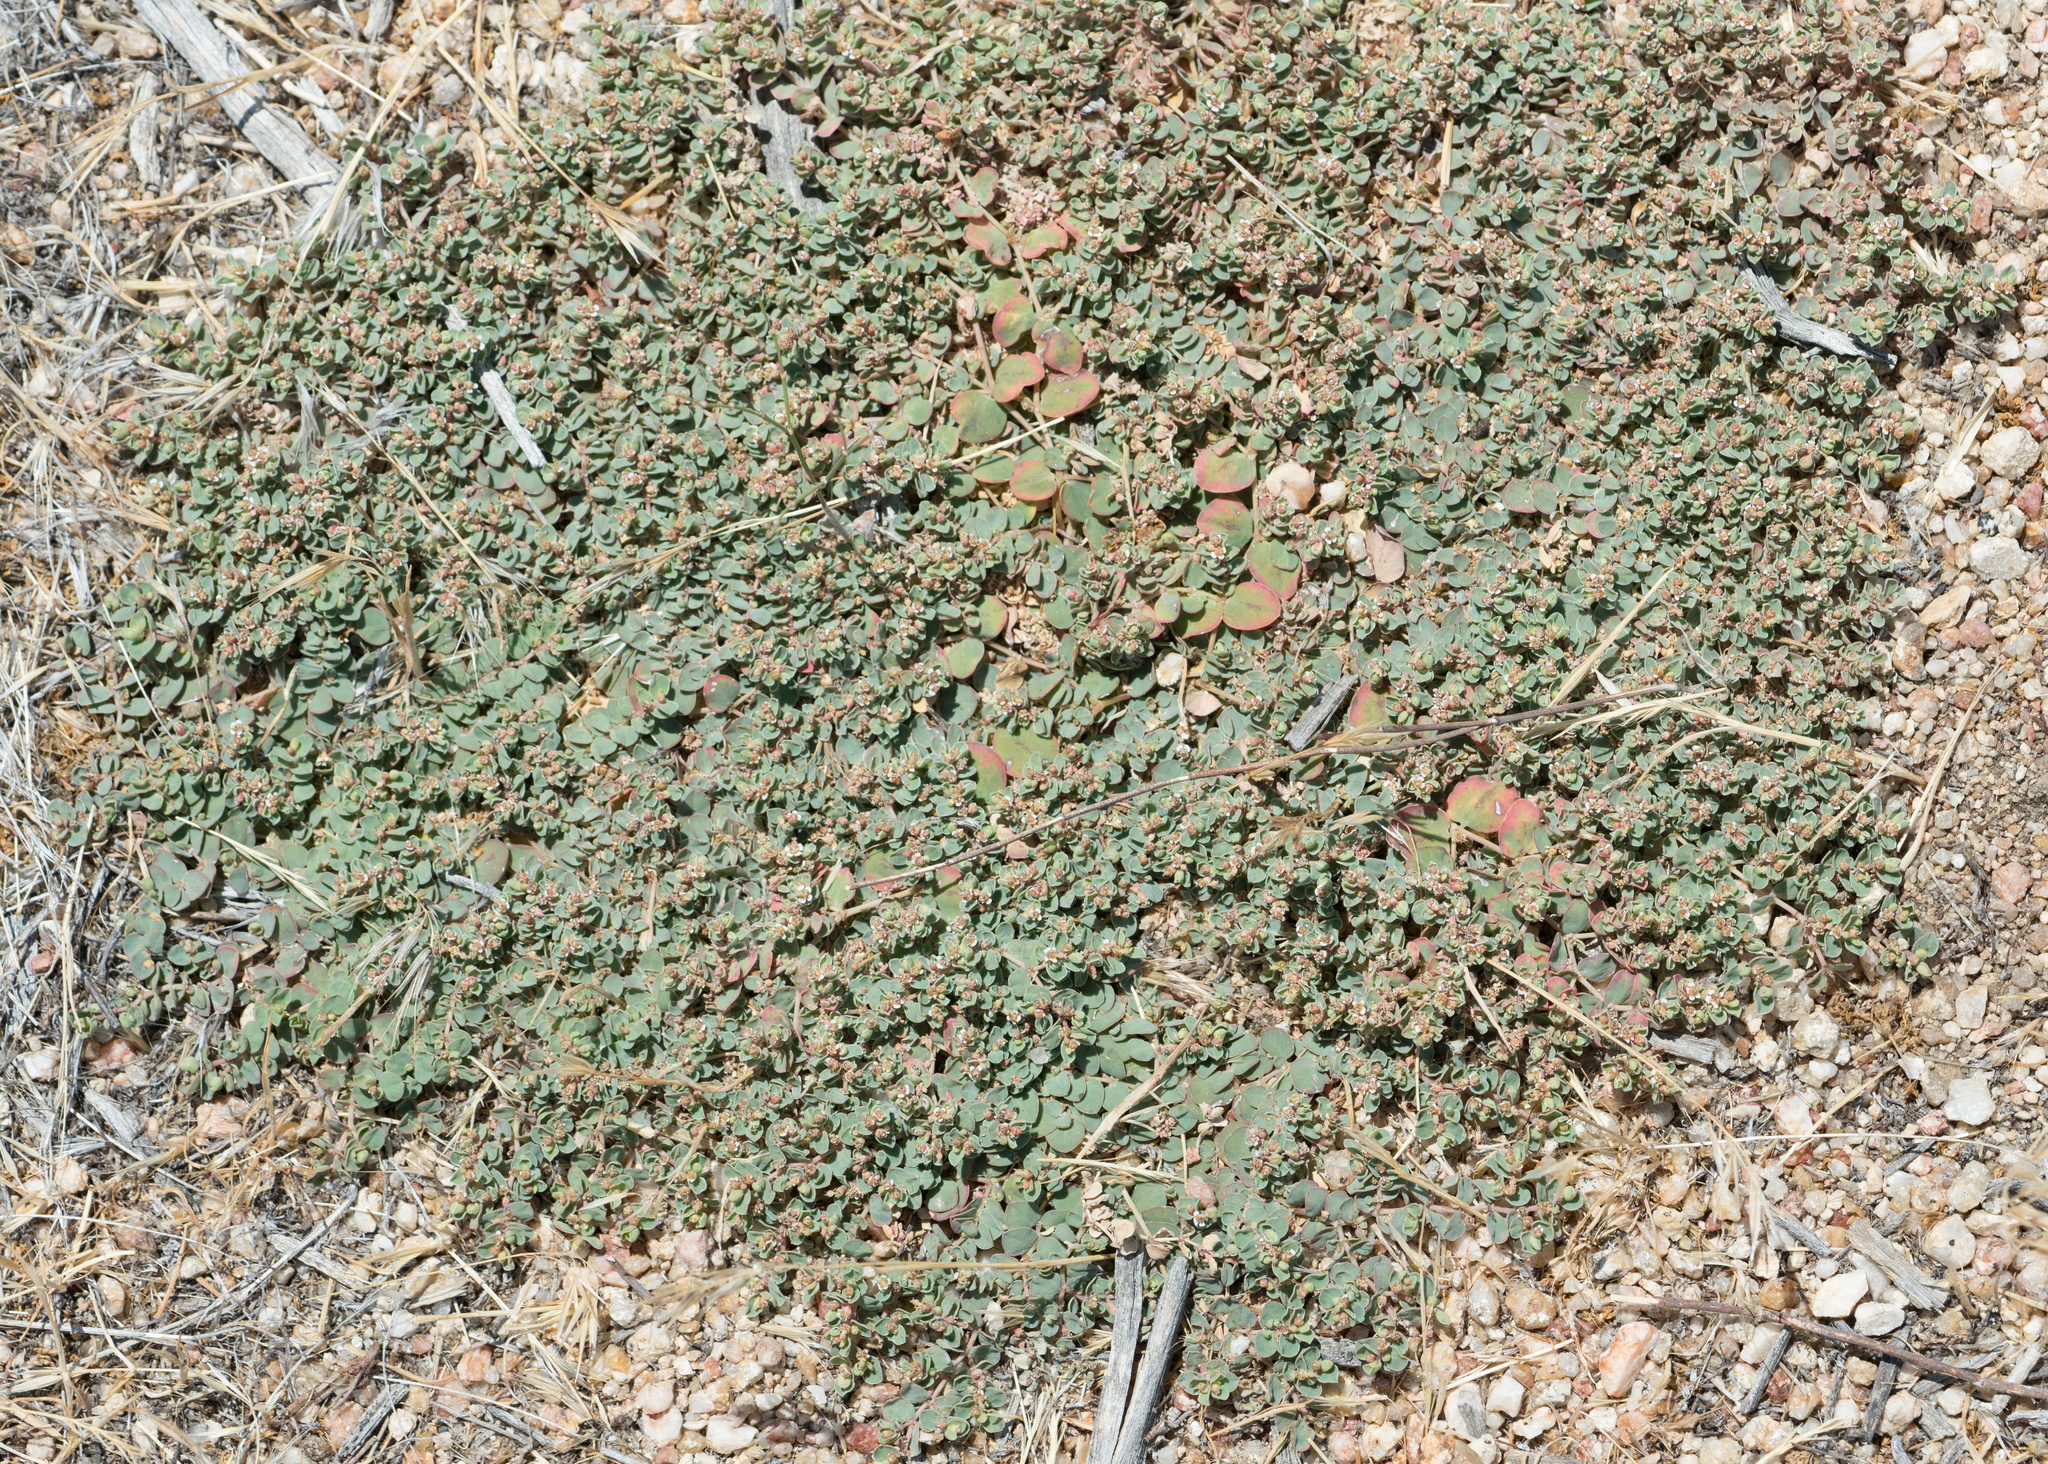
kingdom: Plantae
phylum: Tracheophyta
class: Magnoliopsida
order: Malpighiales
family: Euphorbiaceae
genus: Euphorbia
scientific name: Euphorbia albomarginata
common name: Whitemargin sandmat
